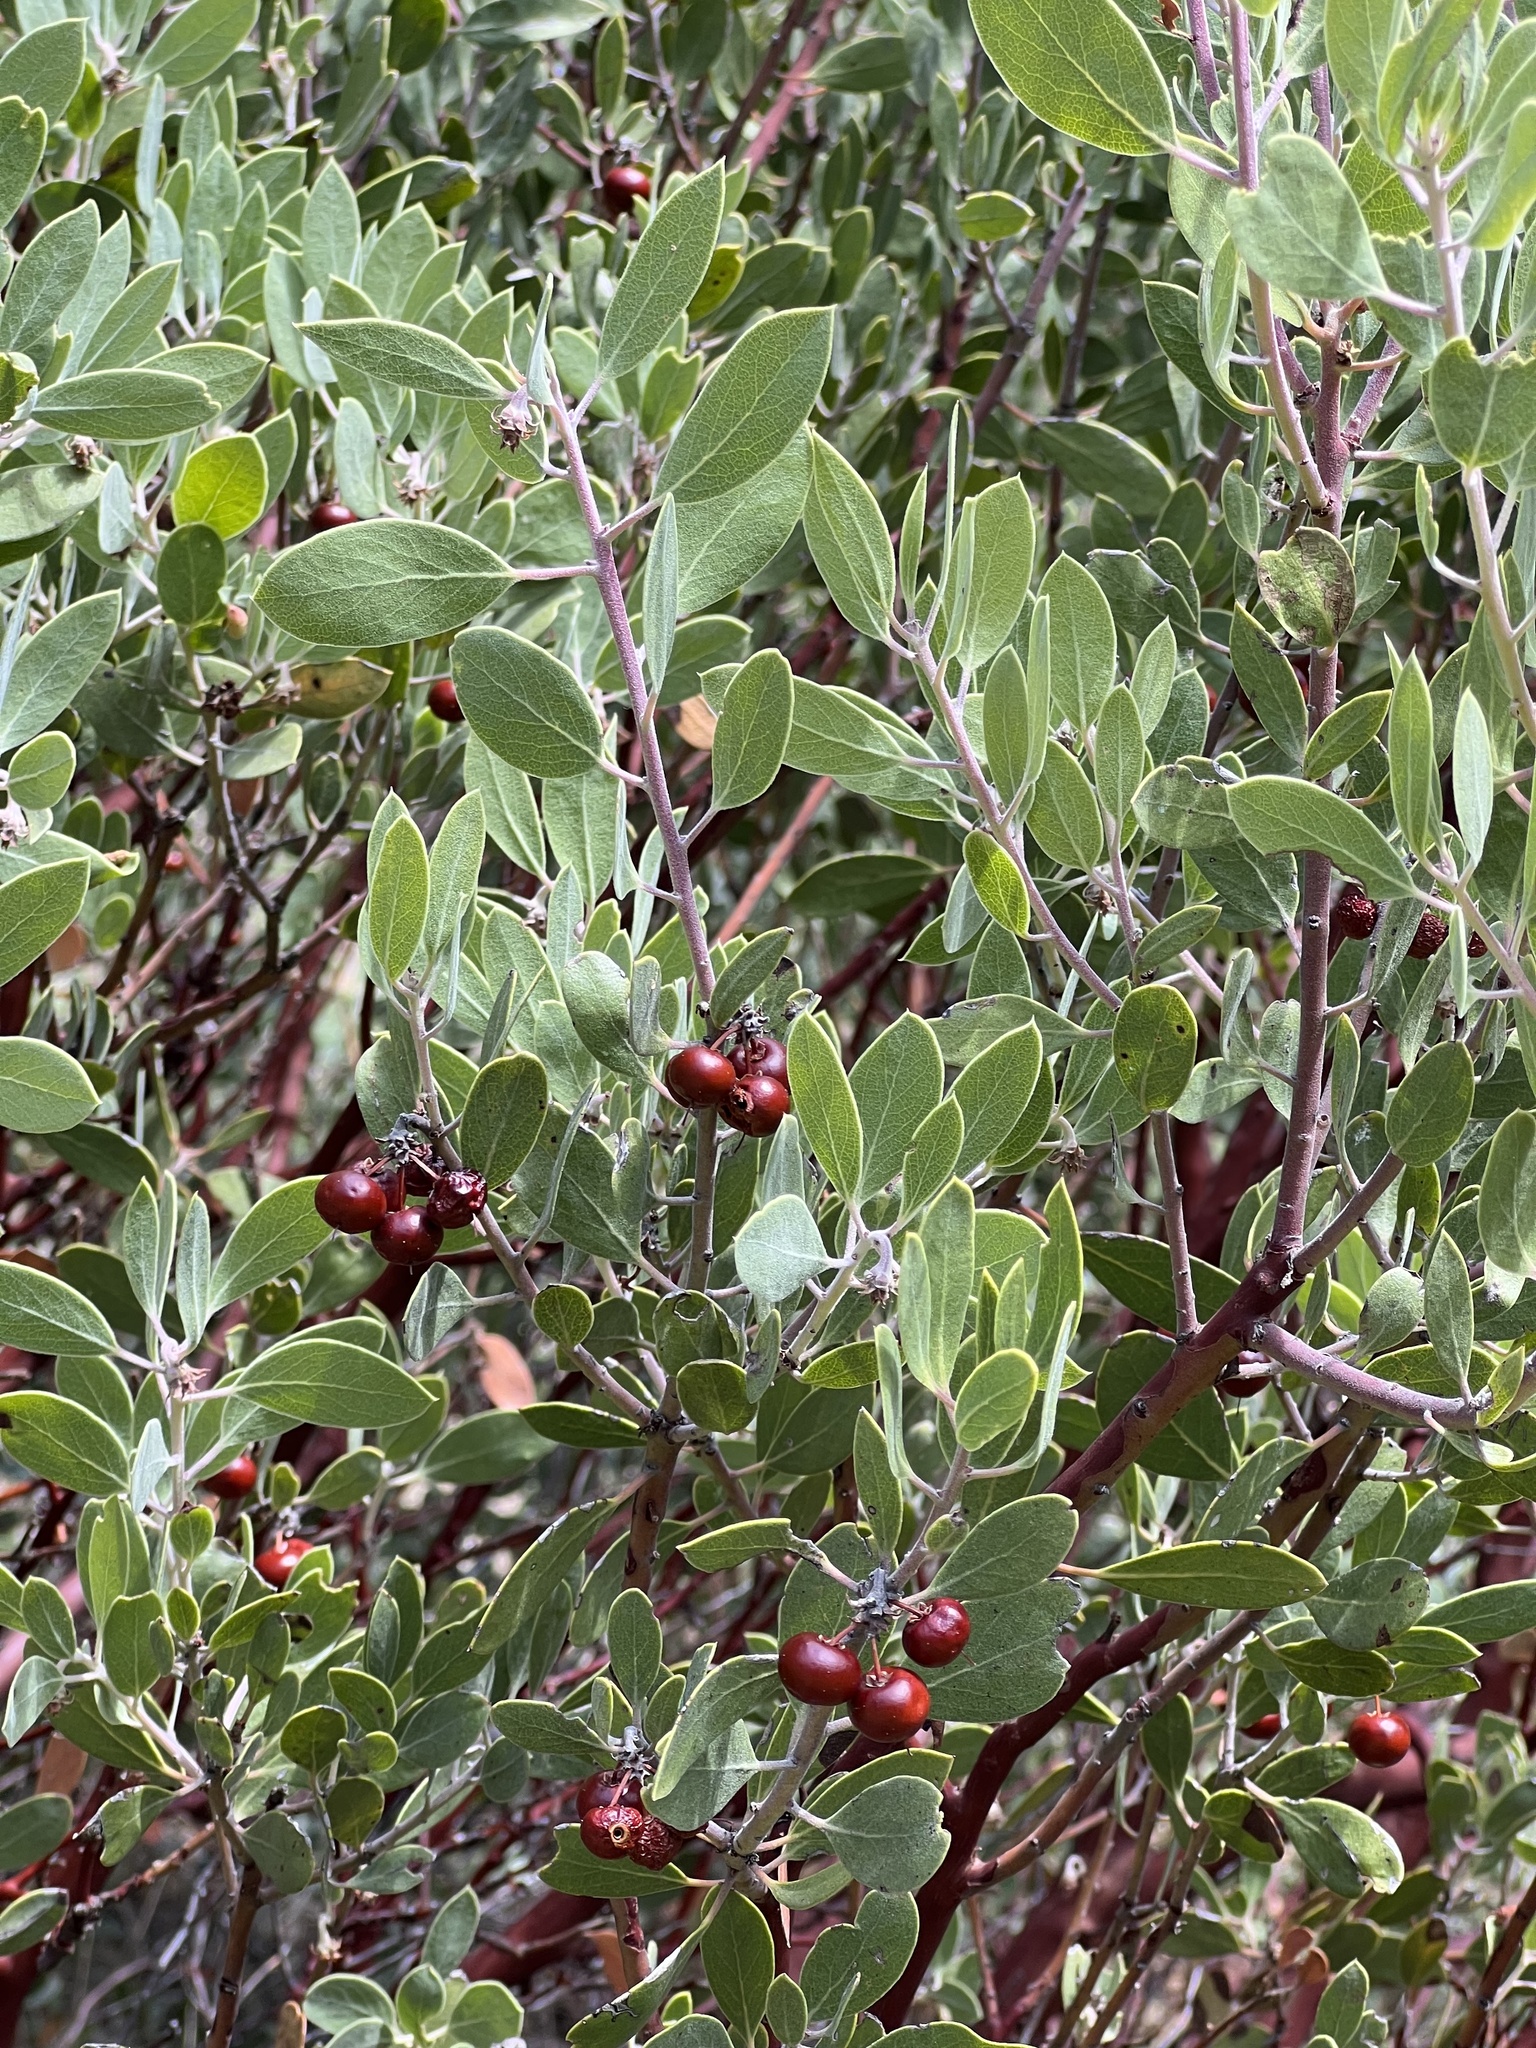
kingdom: Plantae
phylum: Tracheophyta
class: Magnoliopsida
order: Ericales
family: Ericaceae
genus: Arctostaphylos
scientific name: Arctostaphylos pungens
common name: Mexican manzanita
